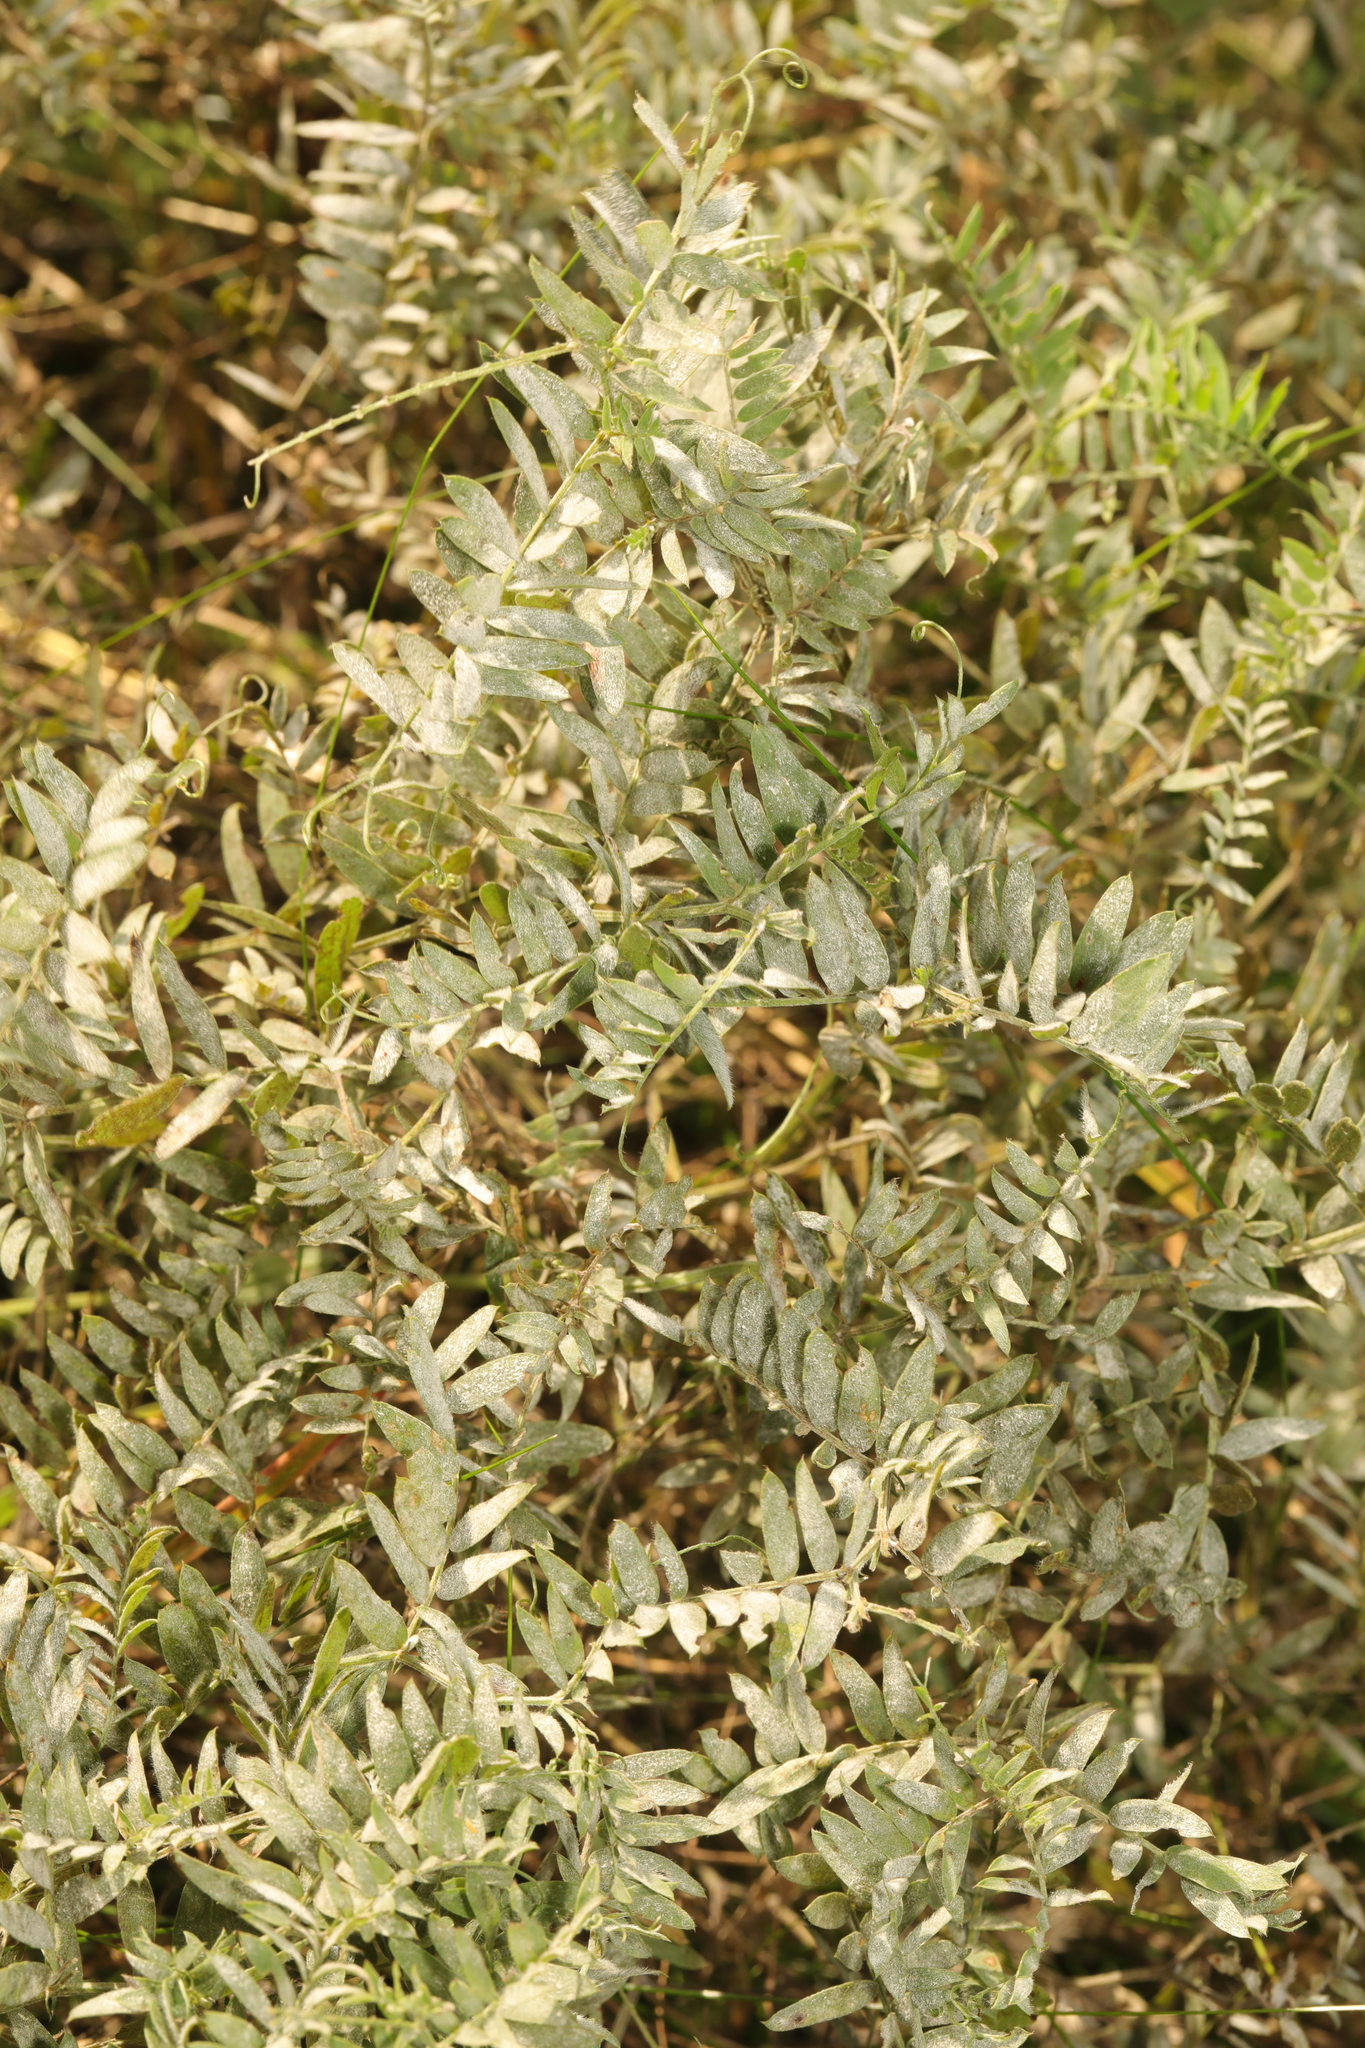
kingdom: Plantae
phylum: Tracheophyta
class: Magnoliopsida
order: Fabales
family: Fabaceae
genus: Vicia
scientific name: Vicia cracca
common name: Bird vetch
